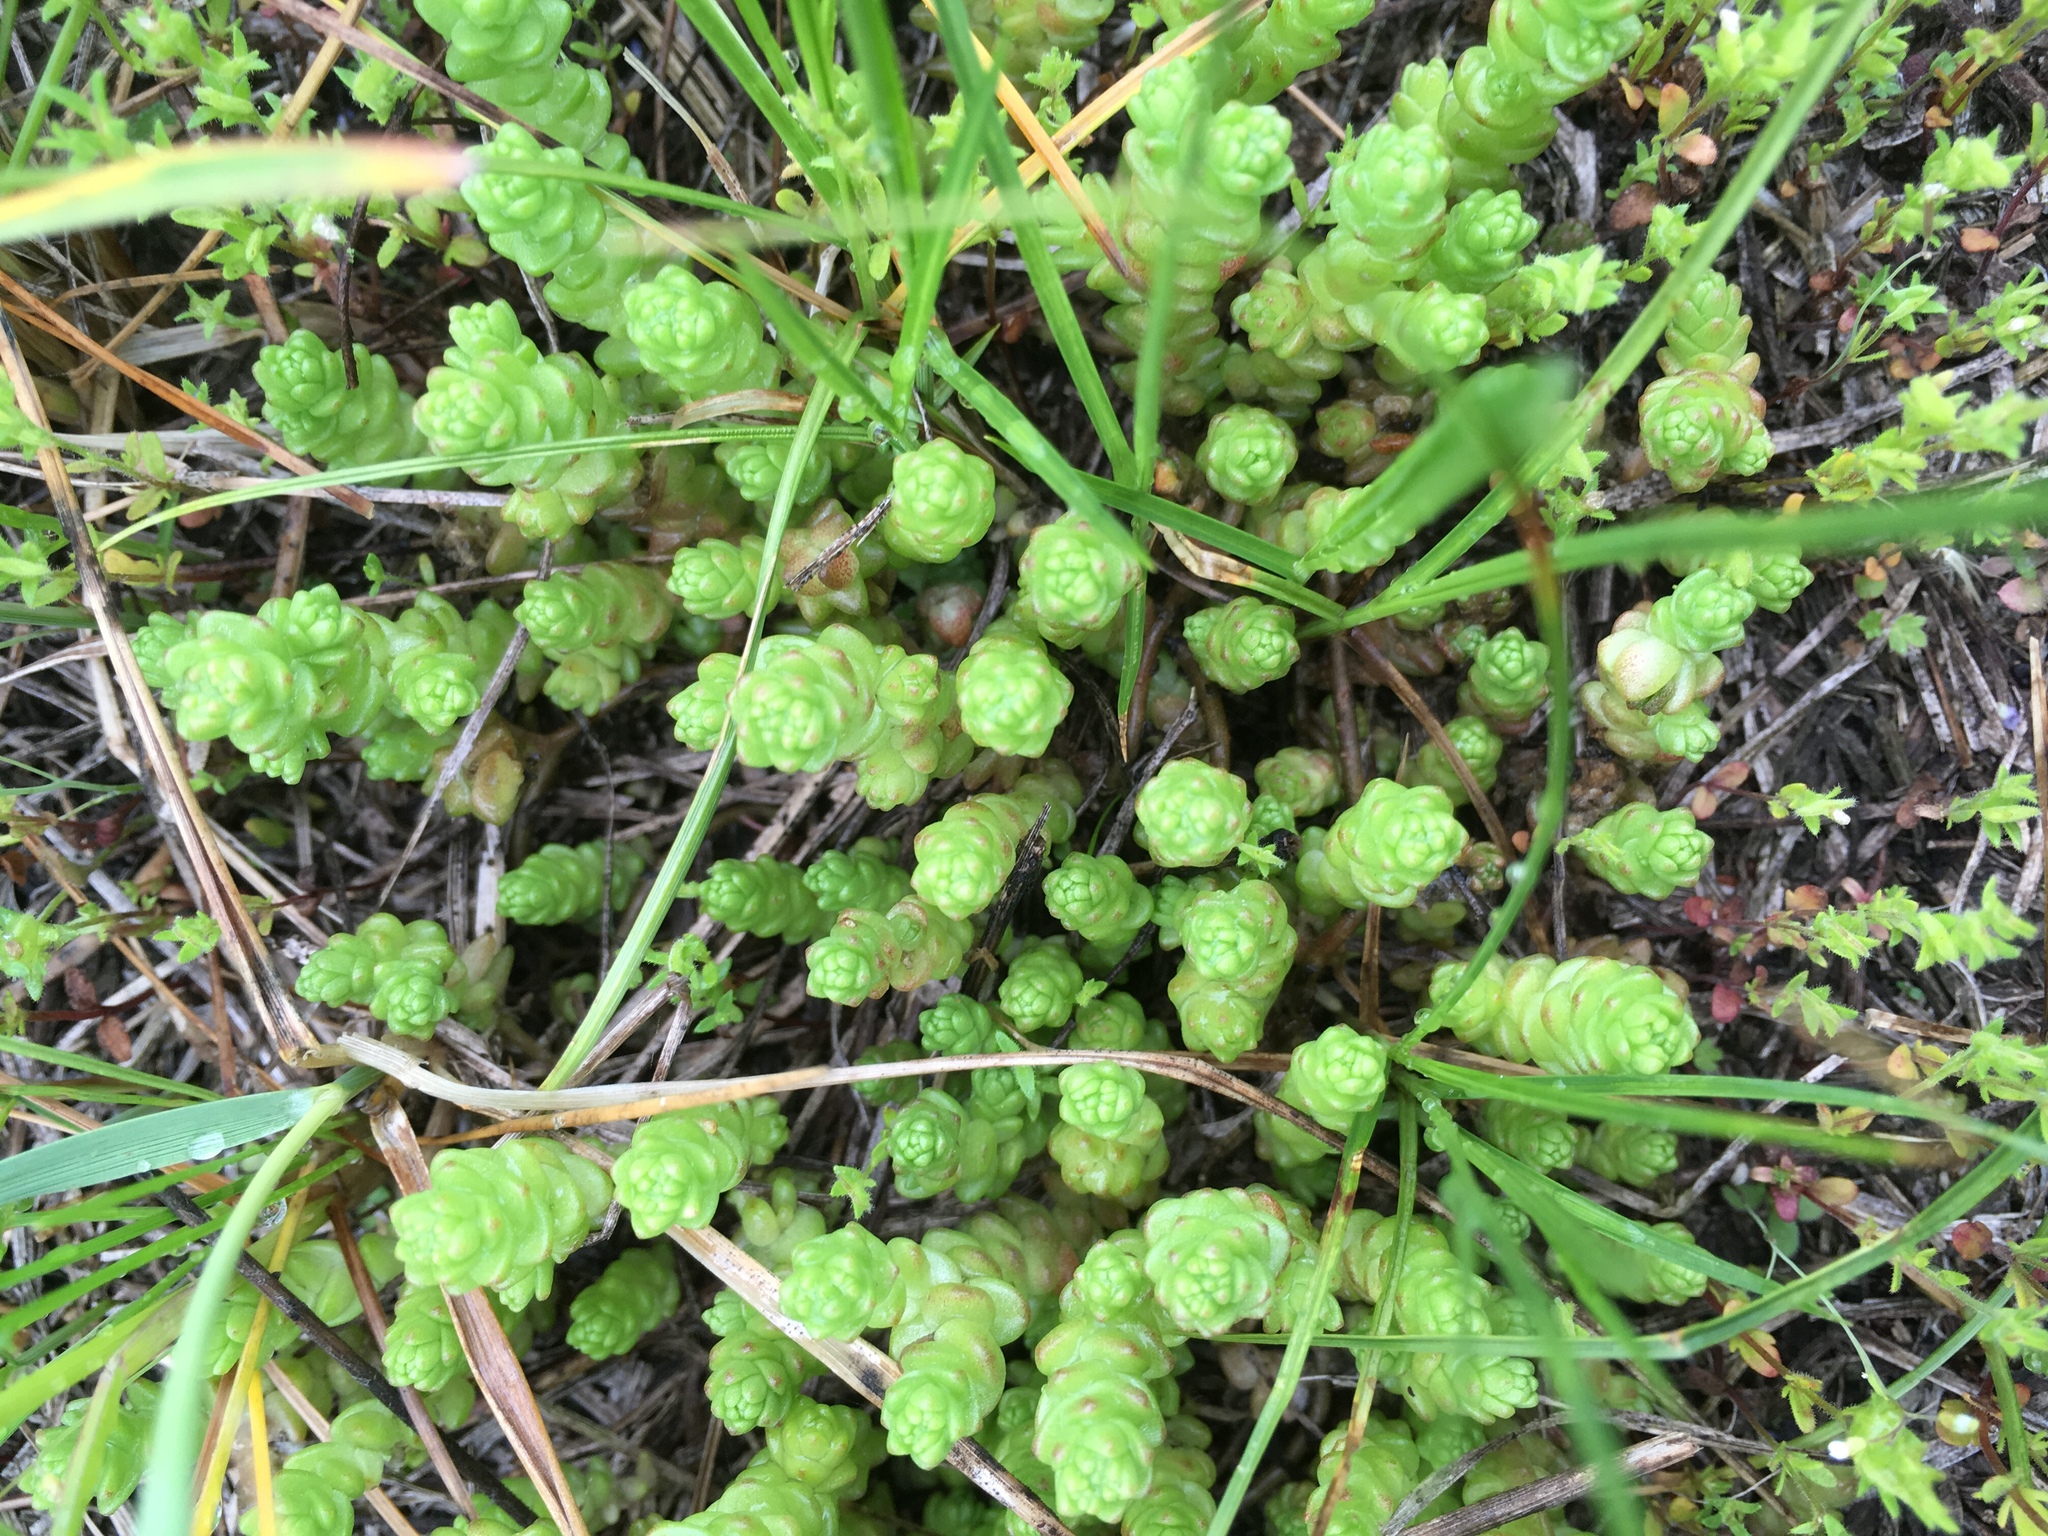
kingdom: Plantae
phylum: Tracheophyta
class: Magnoliopsida
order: Saxifragales
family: Crassulaceae
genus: Sedum
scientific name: Sedum acre
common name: Biting stonecrop
